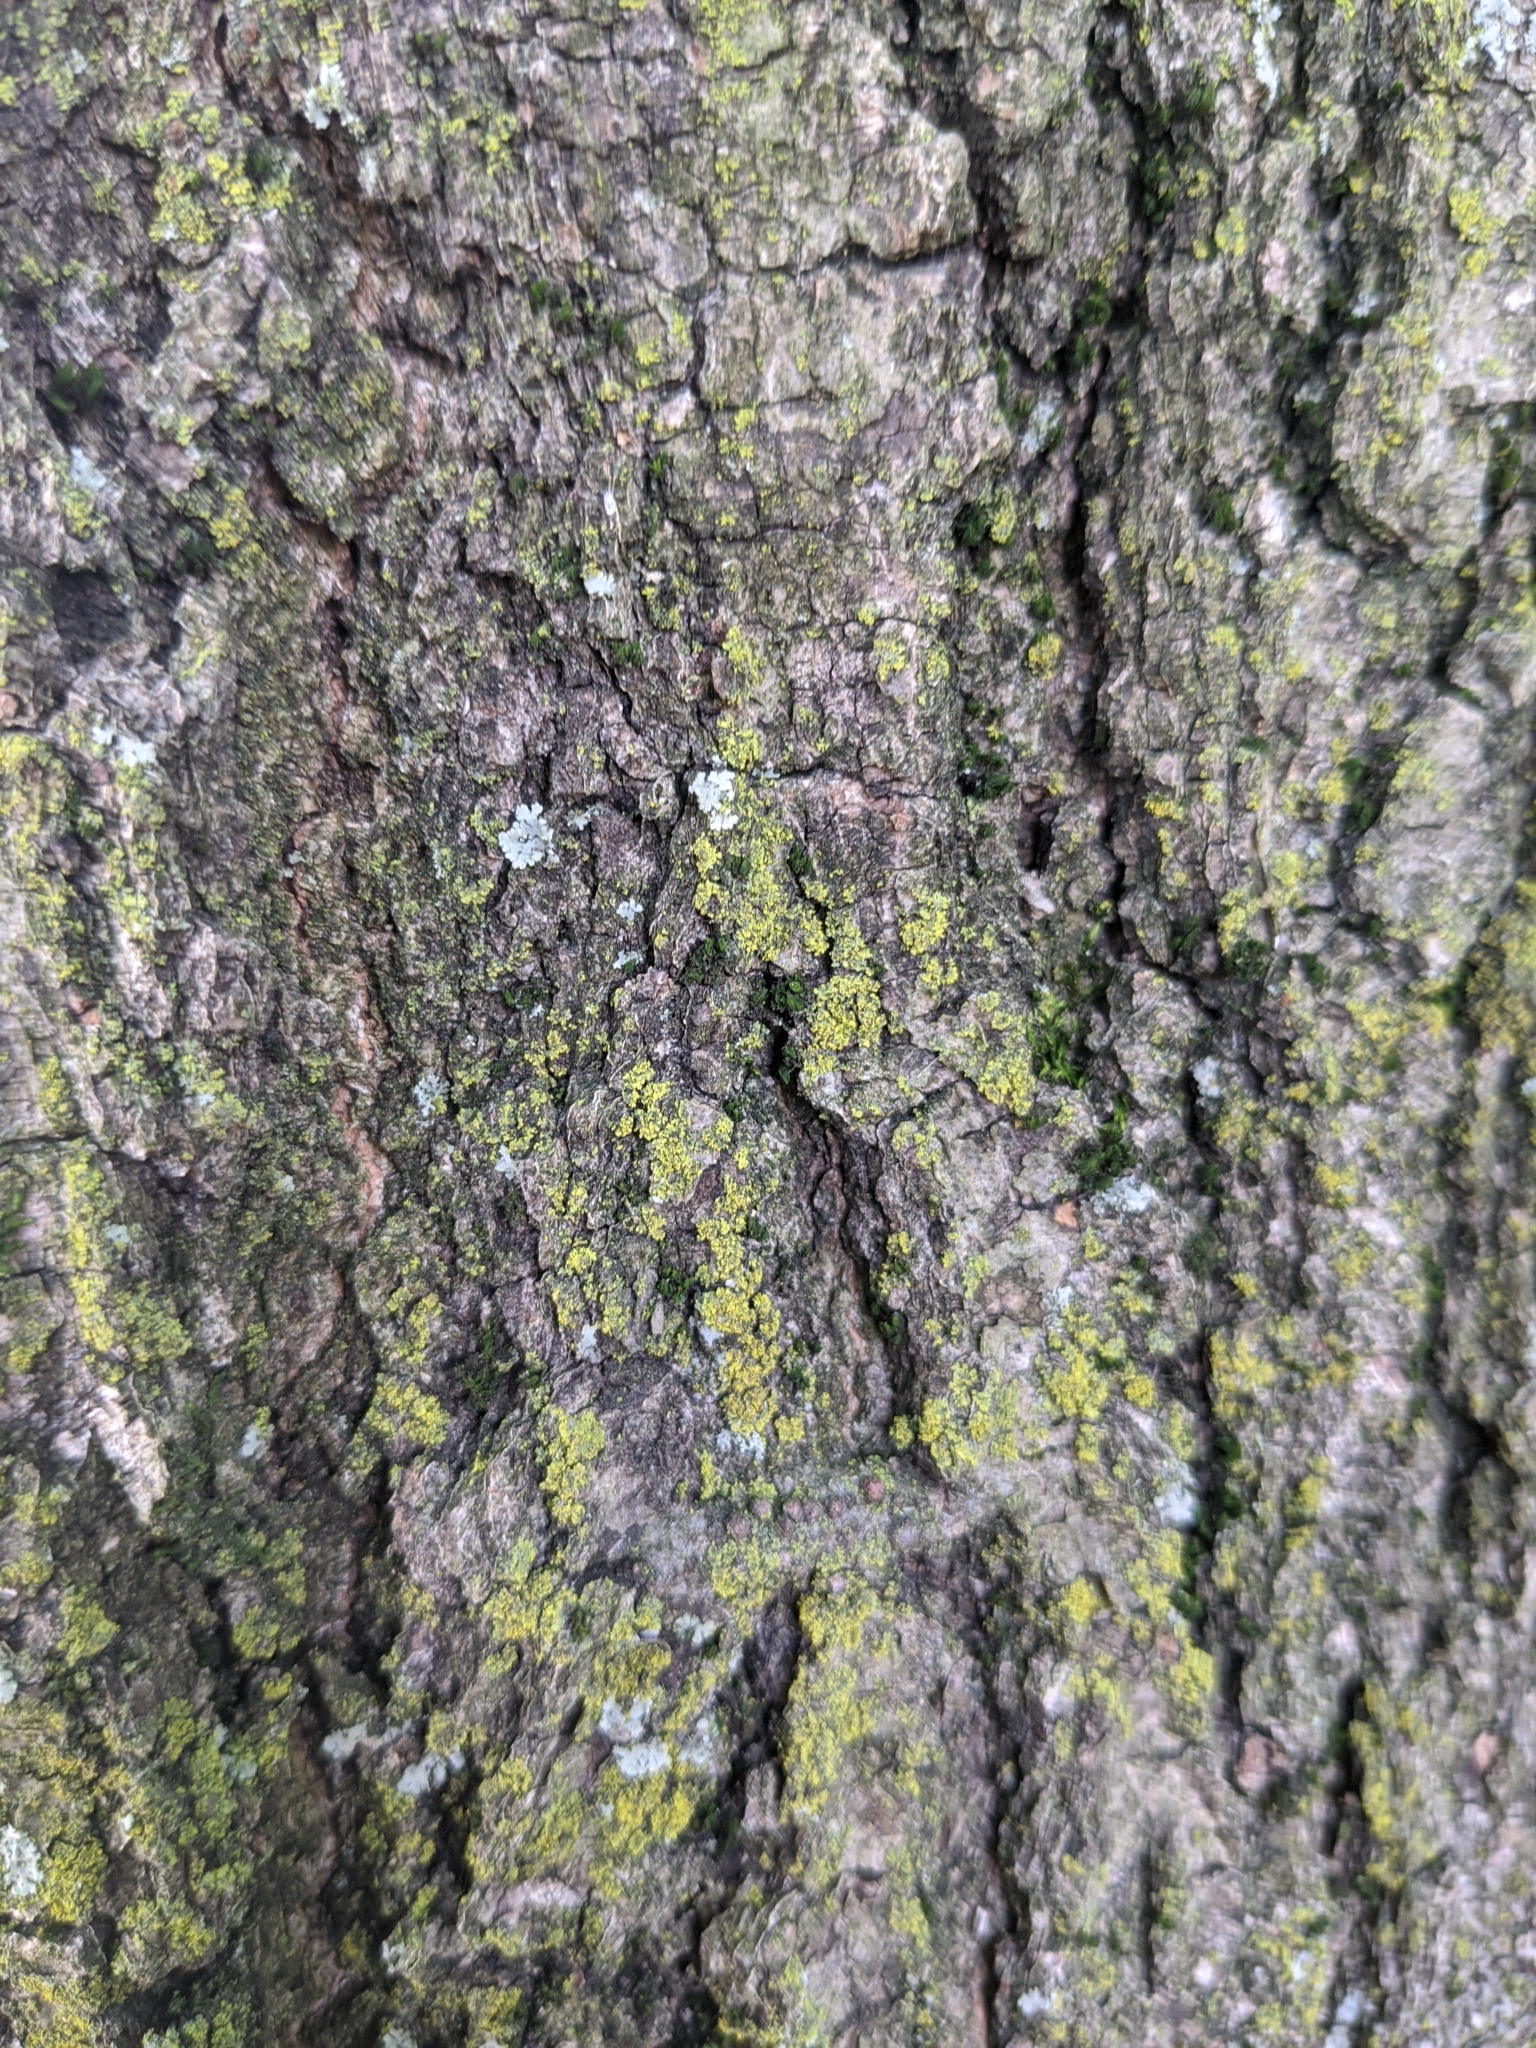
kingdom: Fungi
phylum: Ascomycota
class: Candelariomycetes
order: Candelariales
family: Candelariaceae
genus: Candelaria
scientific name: Candelaria concolor
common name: Candleflame lichen
